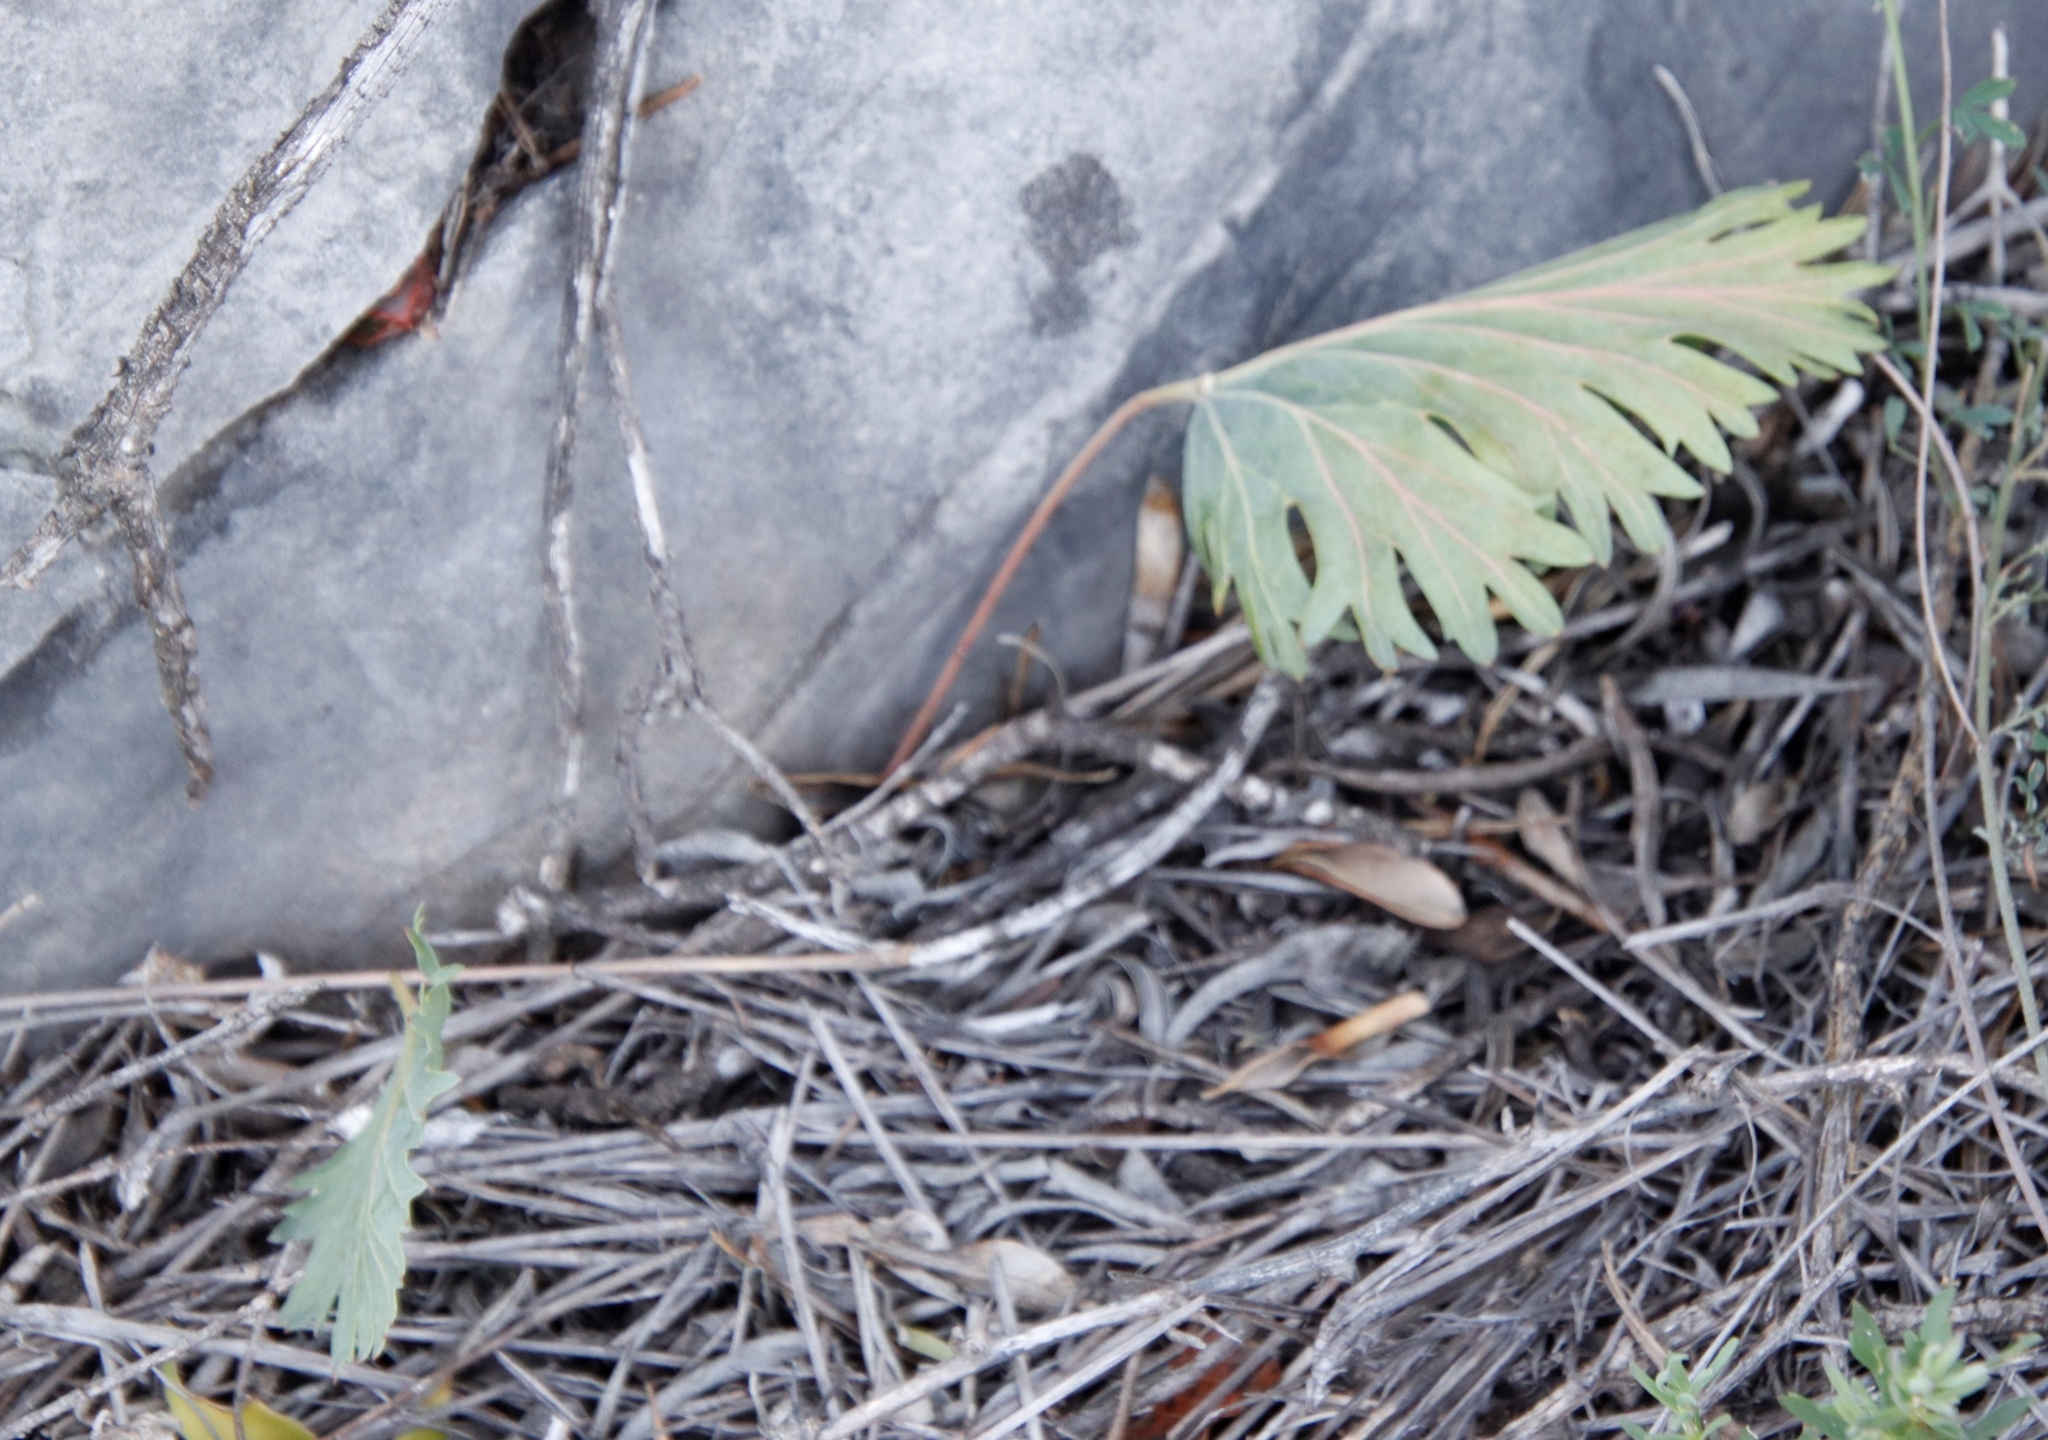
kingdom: Plantae
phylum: Tracheophyta
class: Magnoliopsida
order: Geraniales
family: Geraniaceae
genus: Pelargonium
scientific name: Pelargonium pillansii
